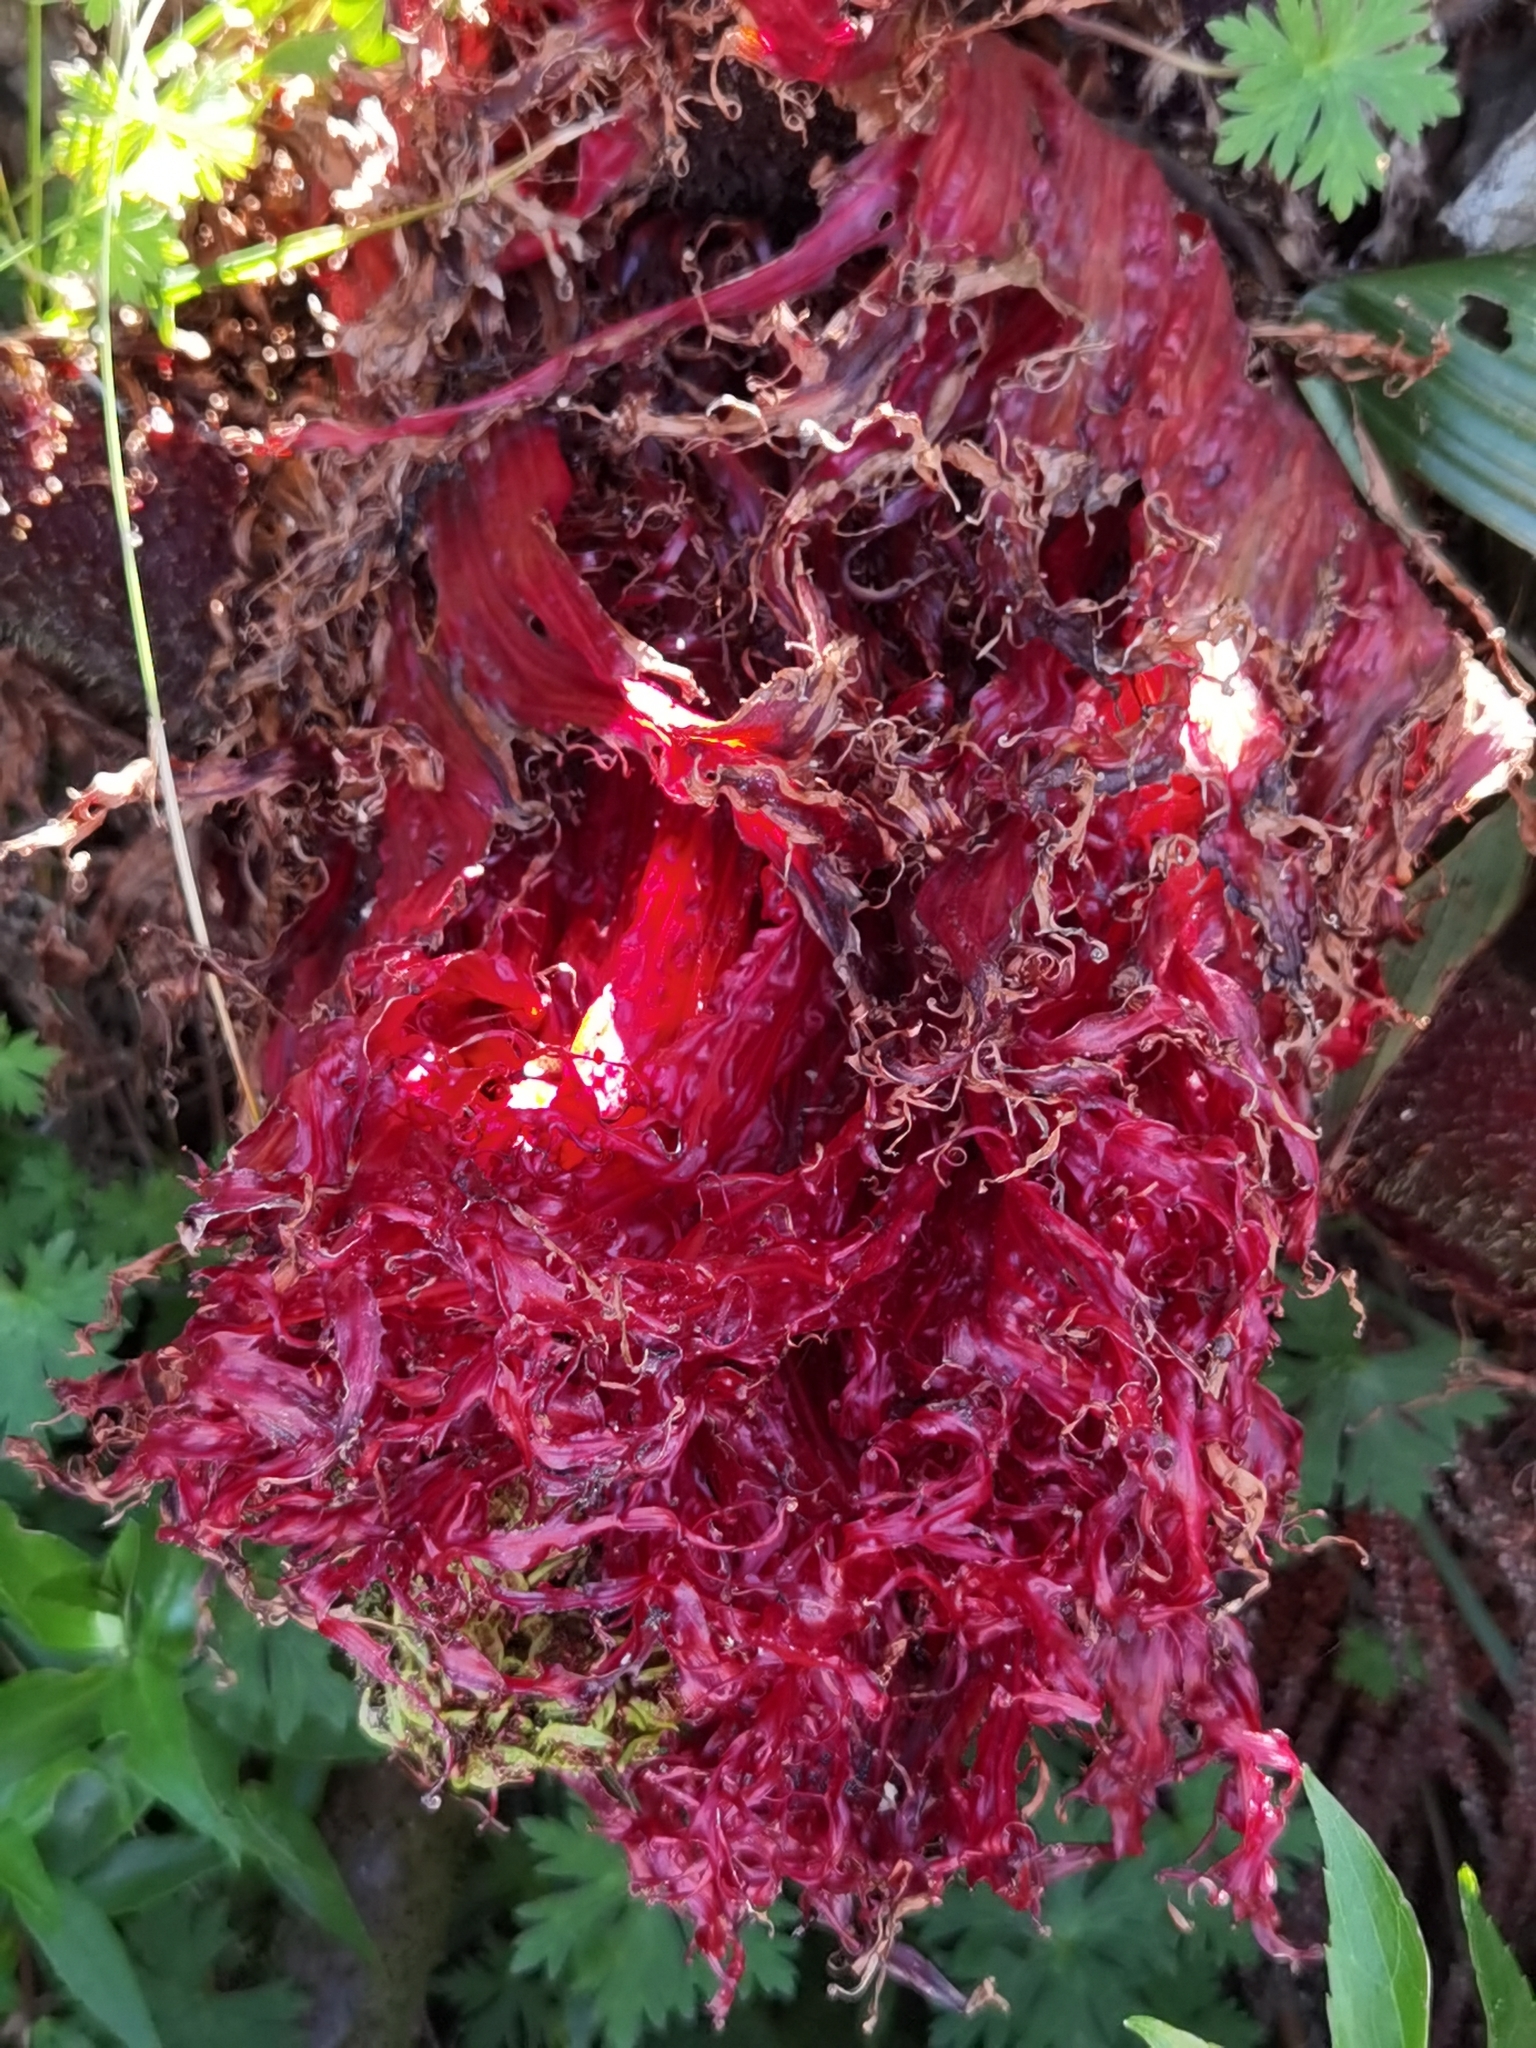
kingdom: Plantae
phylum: Tracheophyta
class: Magnoliopsida
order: Gunnerales
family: Gunneraceae
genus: Gunnera
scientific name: Gunnera insignis
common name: Poorman's umbrella
